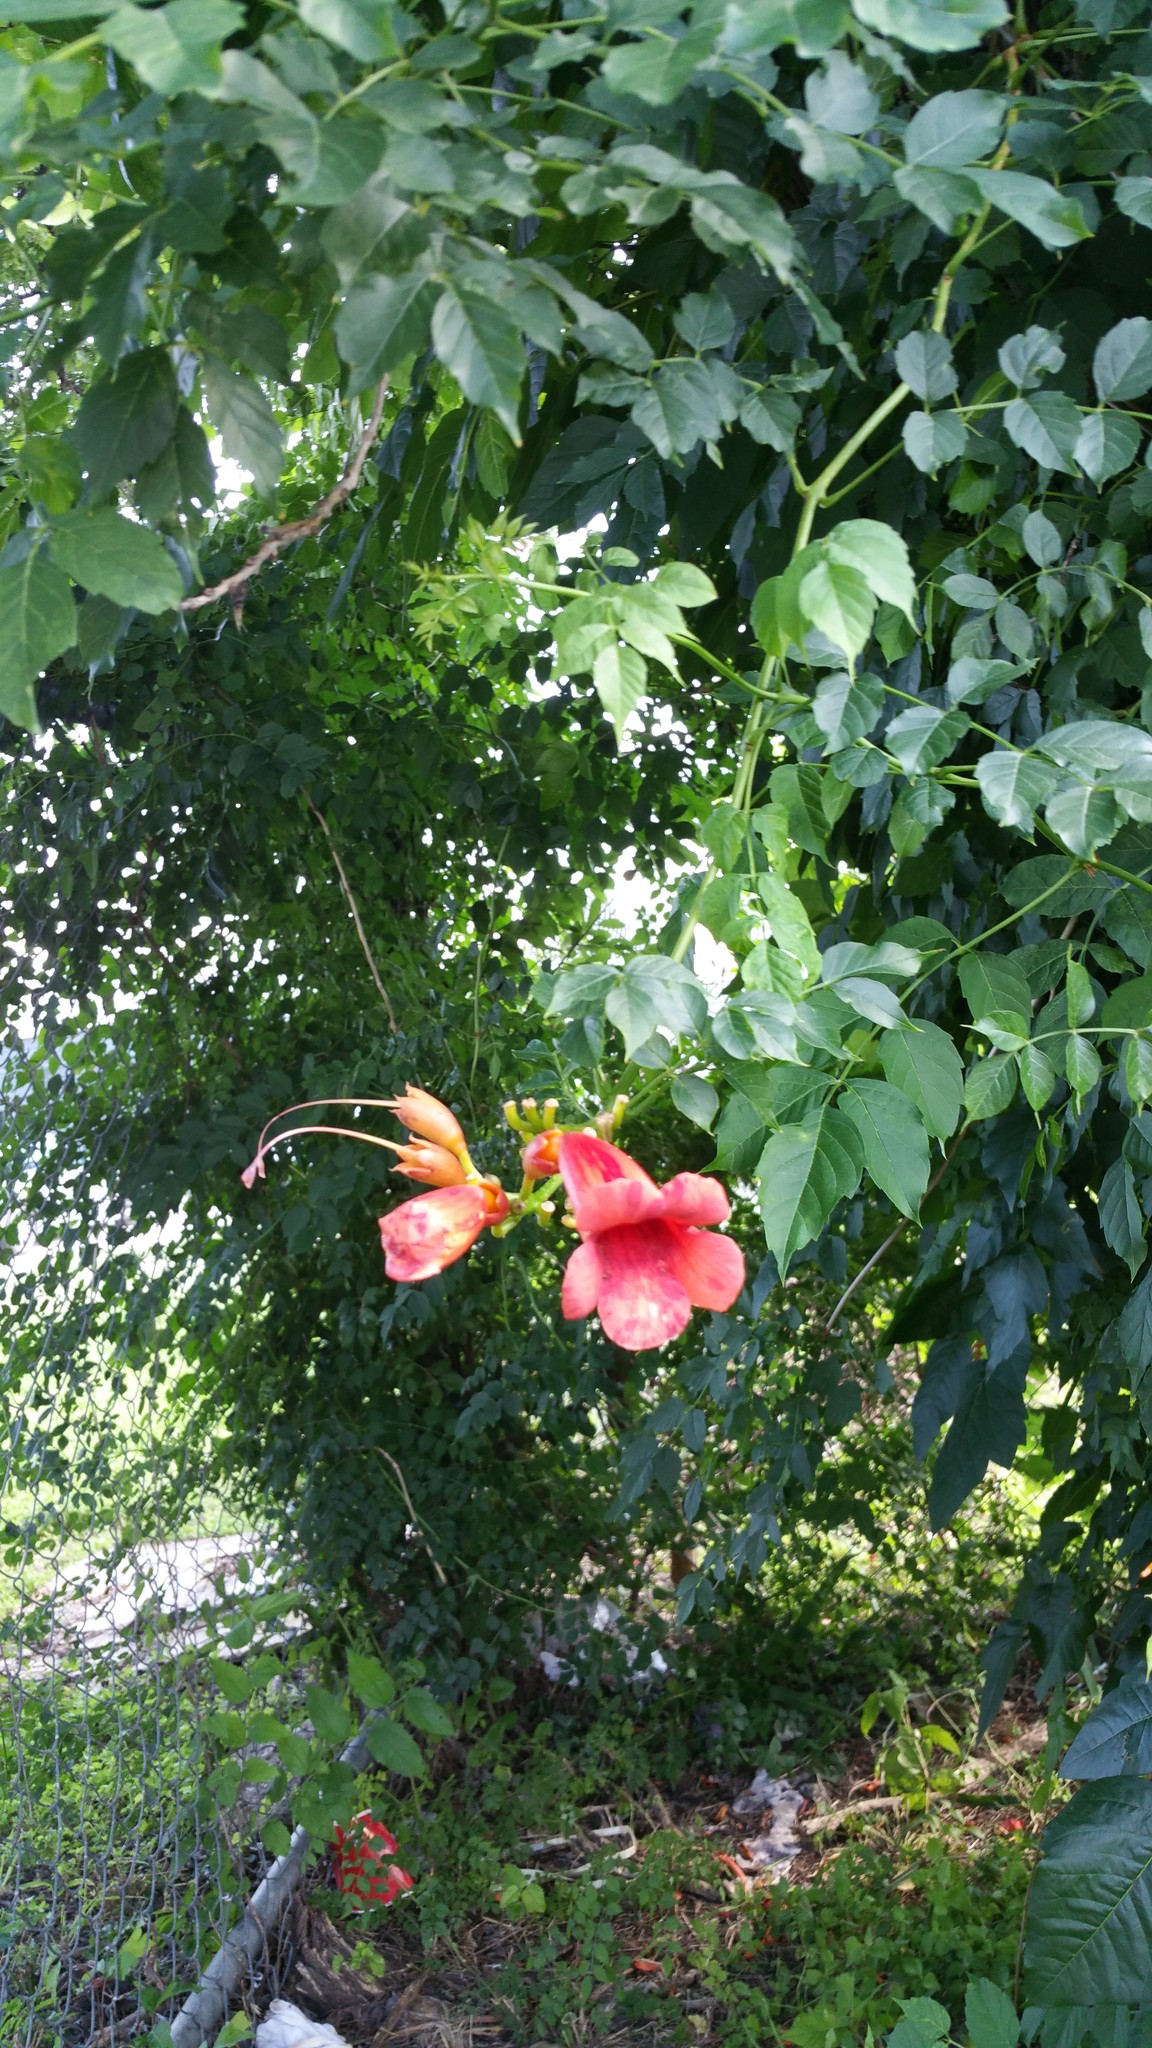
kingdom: Plantae
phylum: Tracheophyta
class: Magnoliopsida
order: Lamiales
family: Bignoniaceae
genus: Campsis
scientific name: Campsis radicans
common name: Trumpet-creeper
